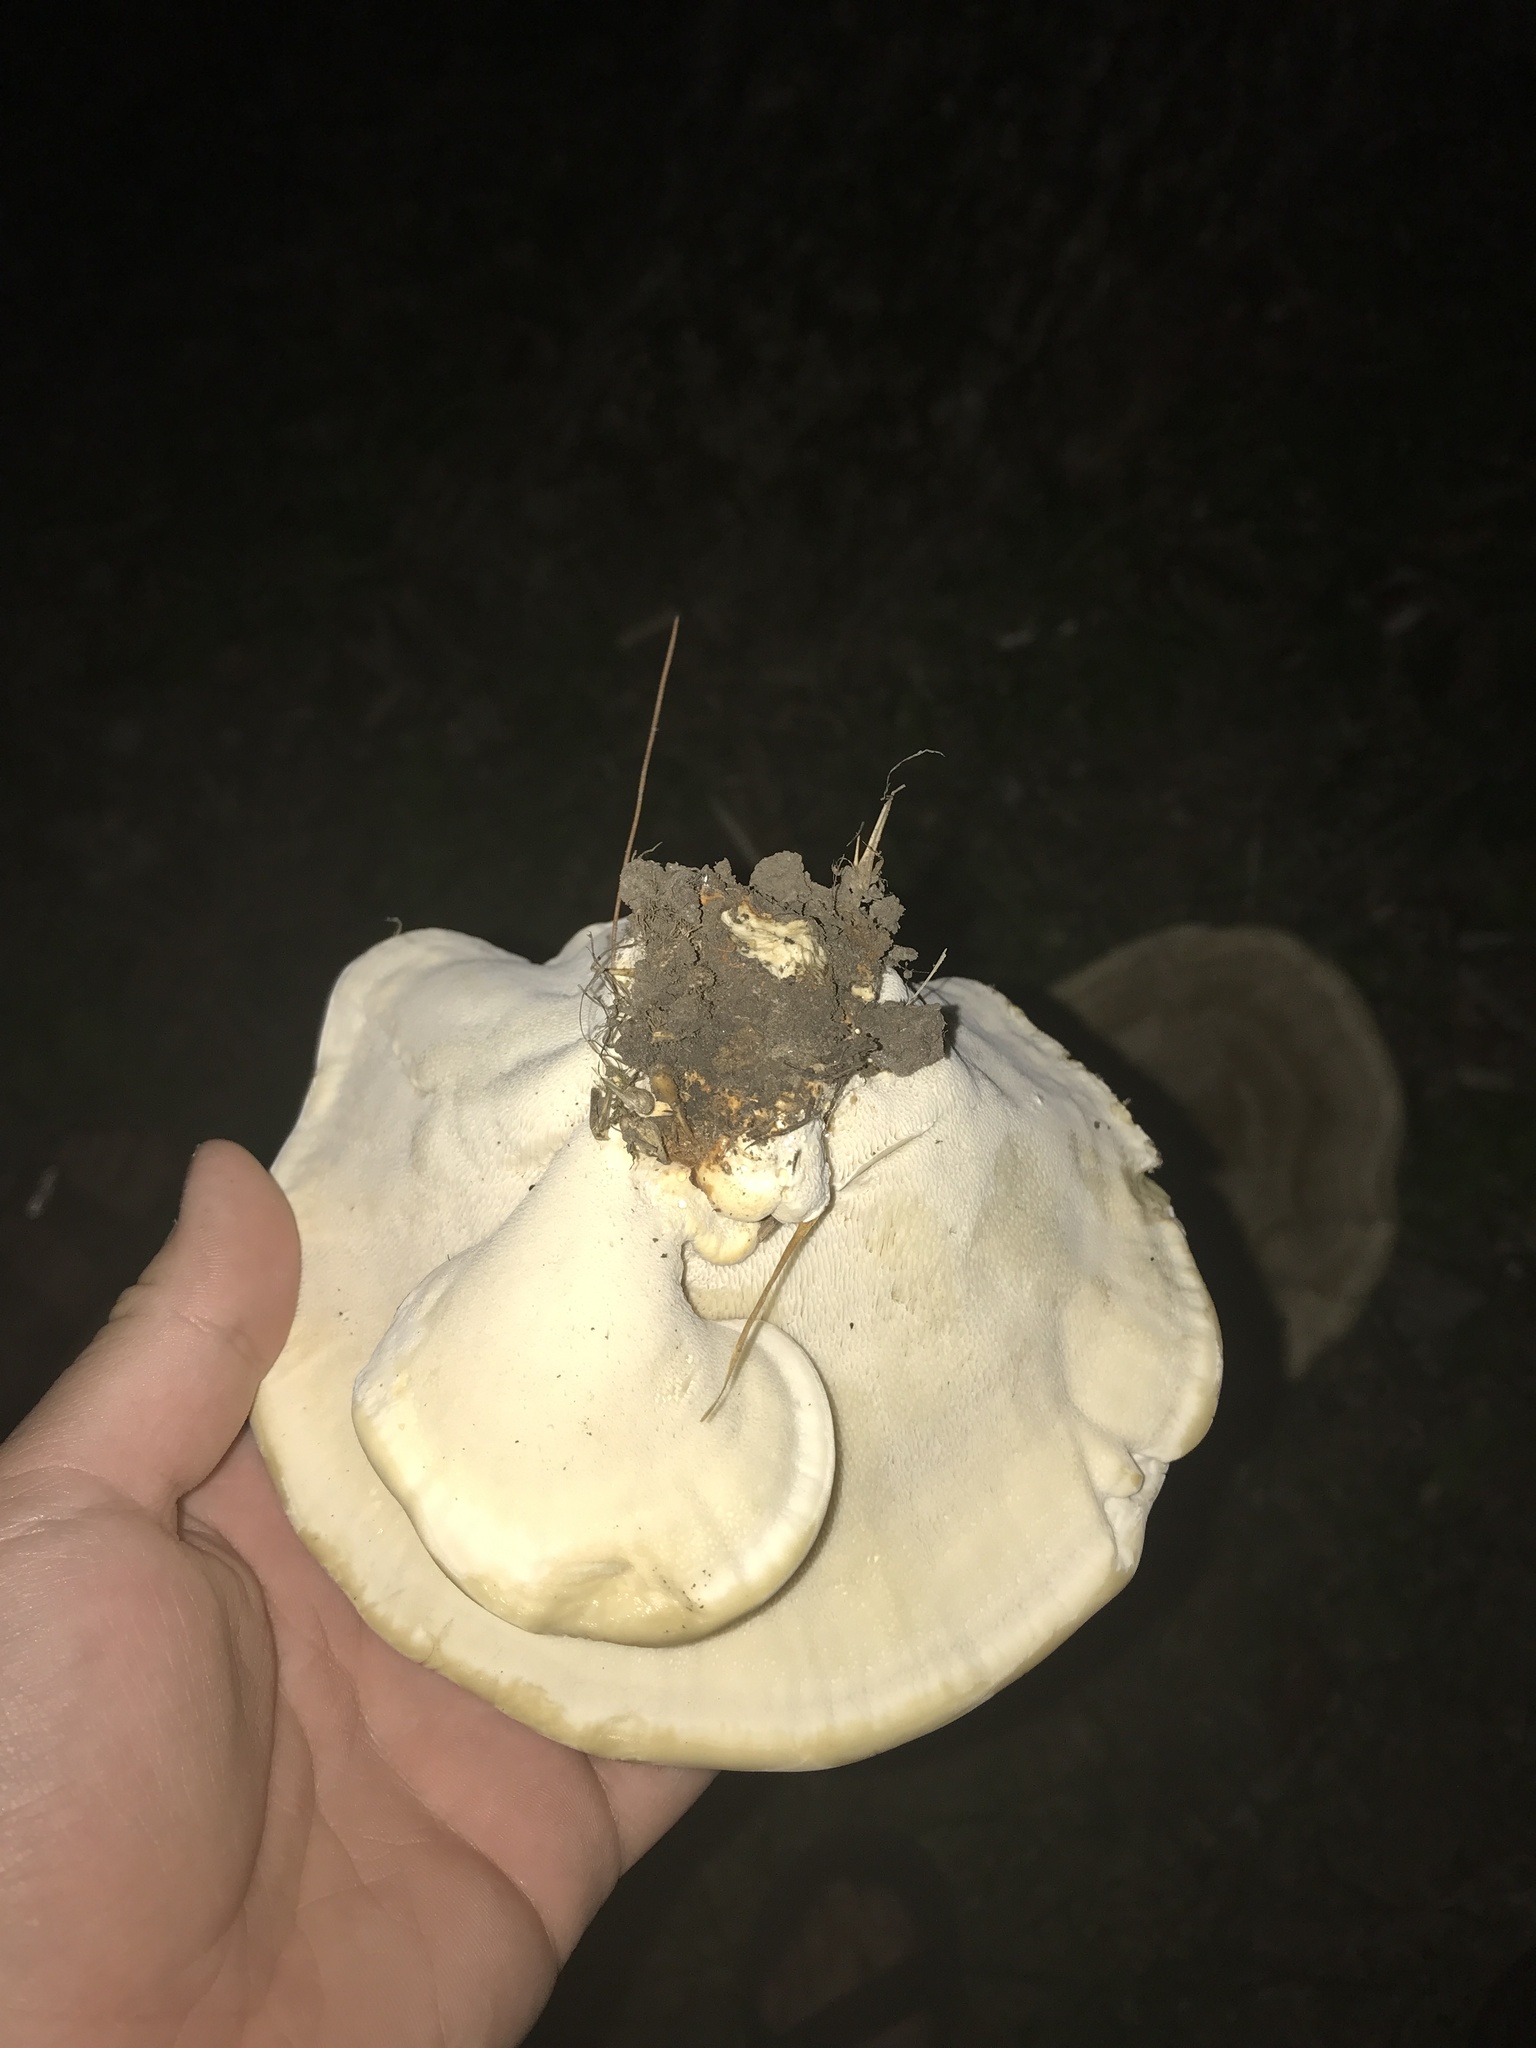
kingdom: Fungi
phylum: Basidiomycota
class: Agaricomycetes
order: Russulales
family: Bondarzewiaceae
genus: Bondarzewia
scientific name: Bondarzewia berkeleyi
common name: Berkeley's polypore
